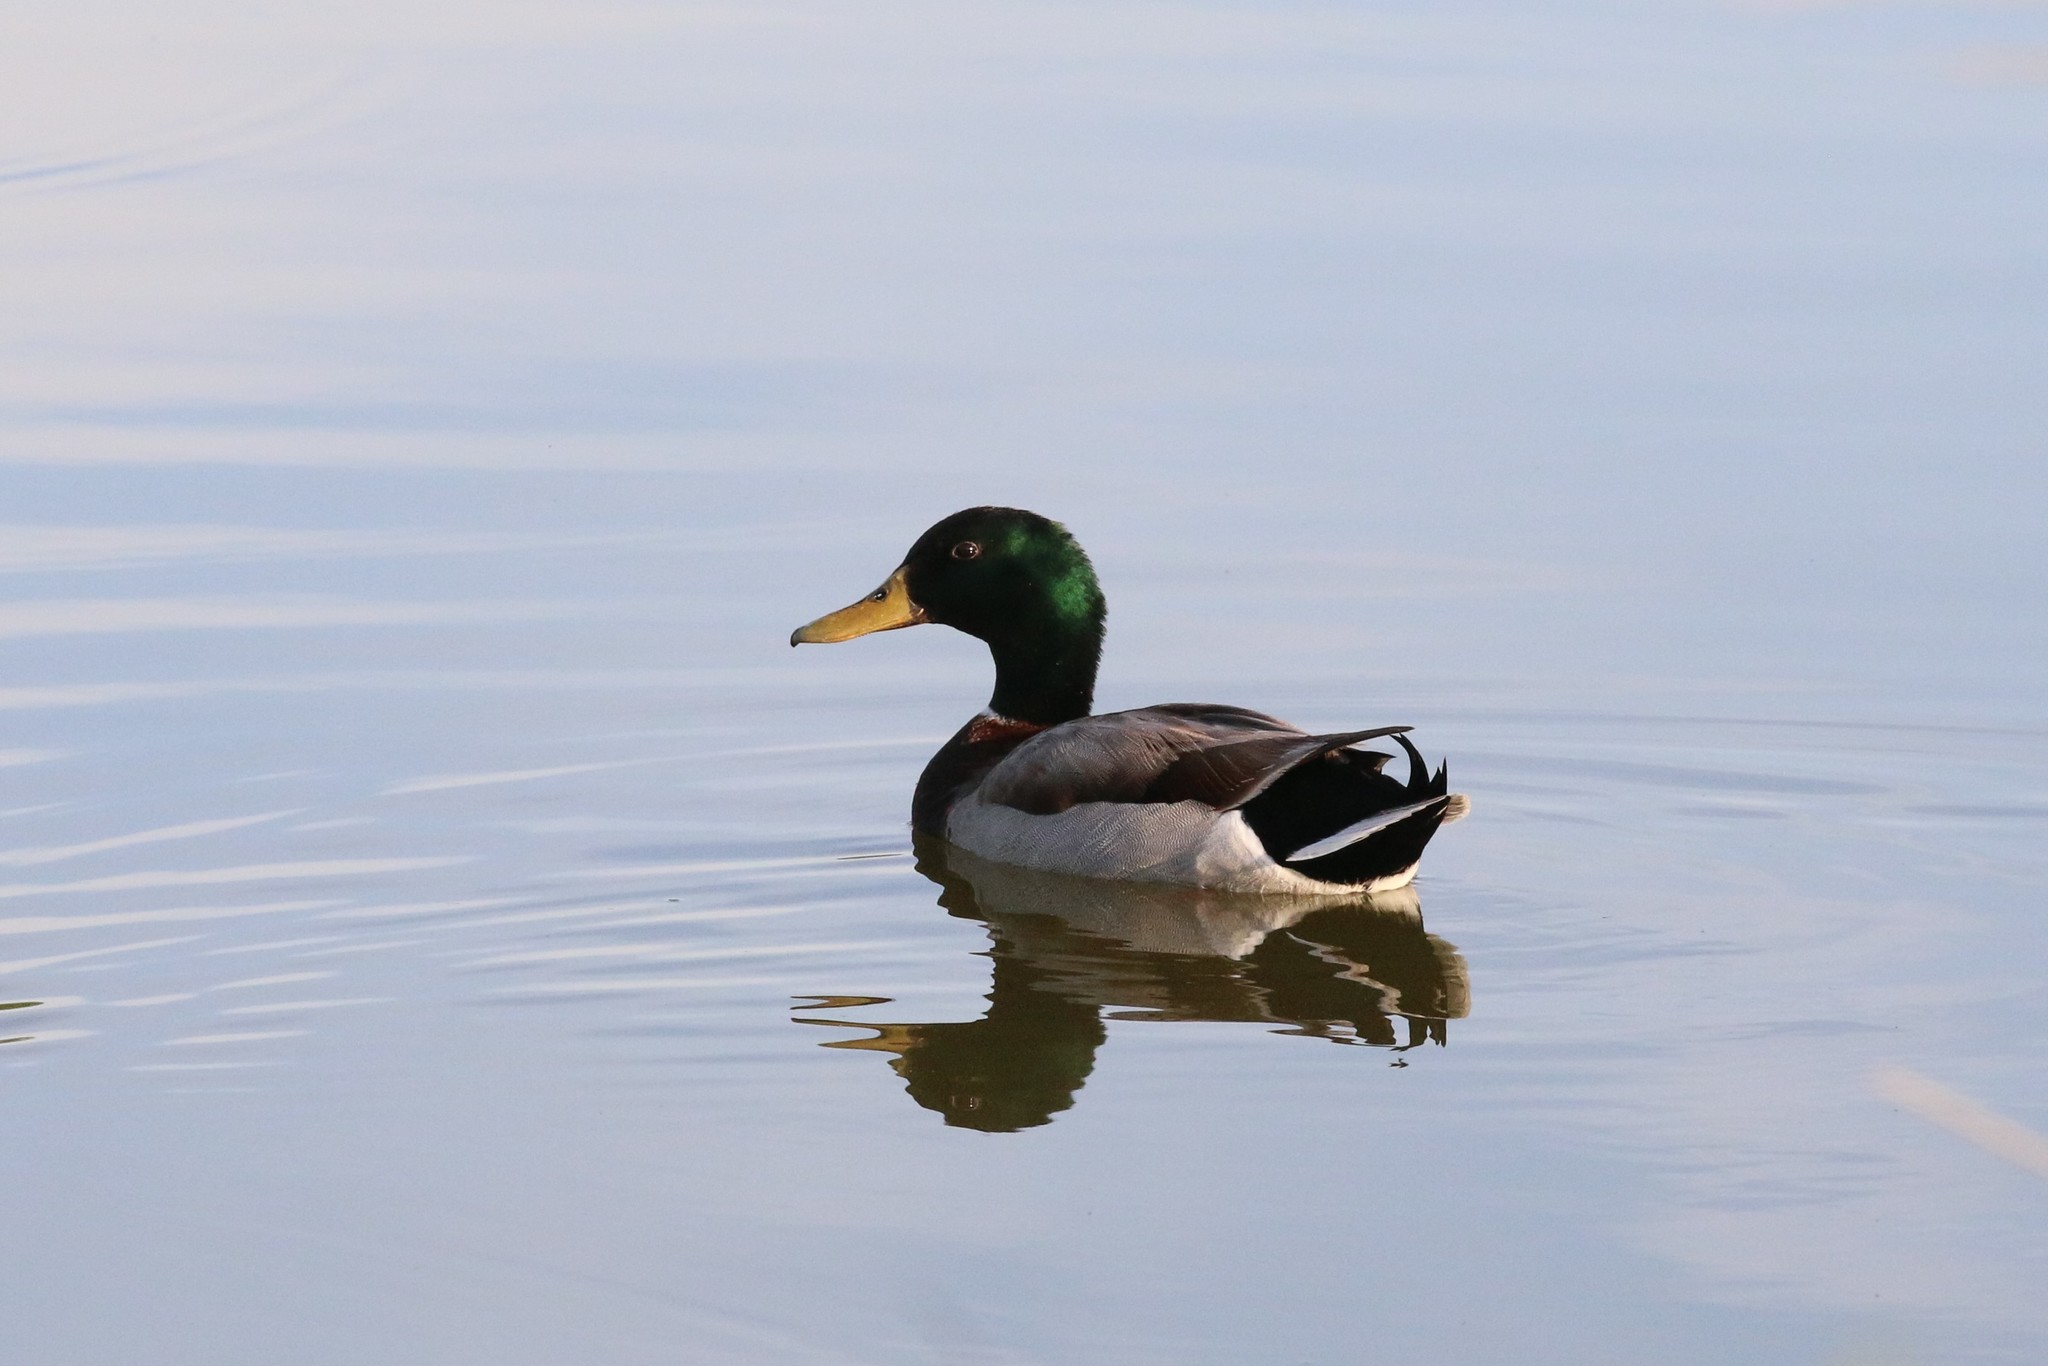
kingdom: Animalia
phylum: Chordata
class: Aves
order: Anseriformes
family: Anatidae
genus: Anas
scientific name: Anas platyrhynchos
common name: Mallard
